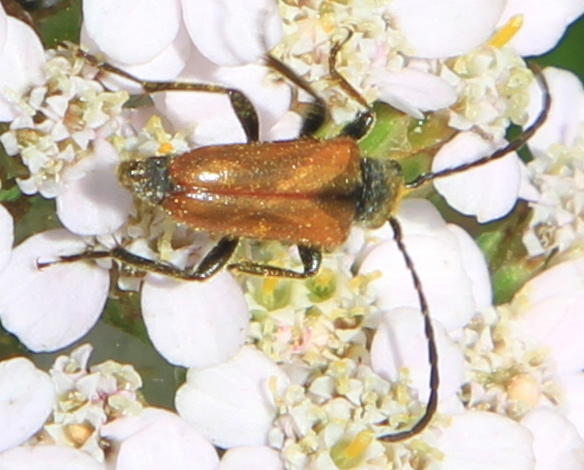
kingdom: Animalia
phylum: Arthropoda
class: Insecta
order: Coleoptera
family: Cerambycidae
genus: Pseudovadonia
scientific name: Pseudovadonia livida
